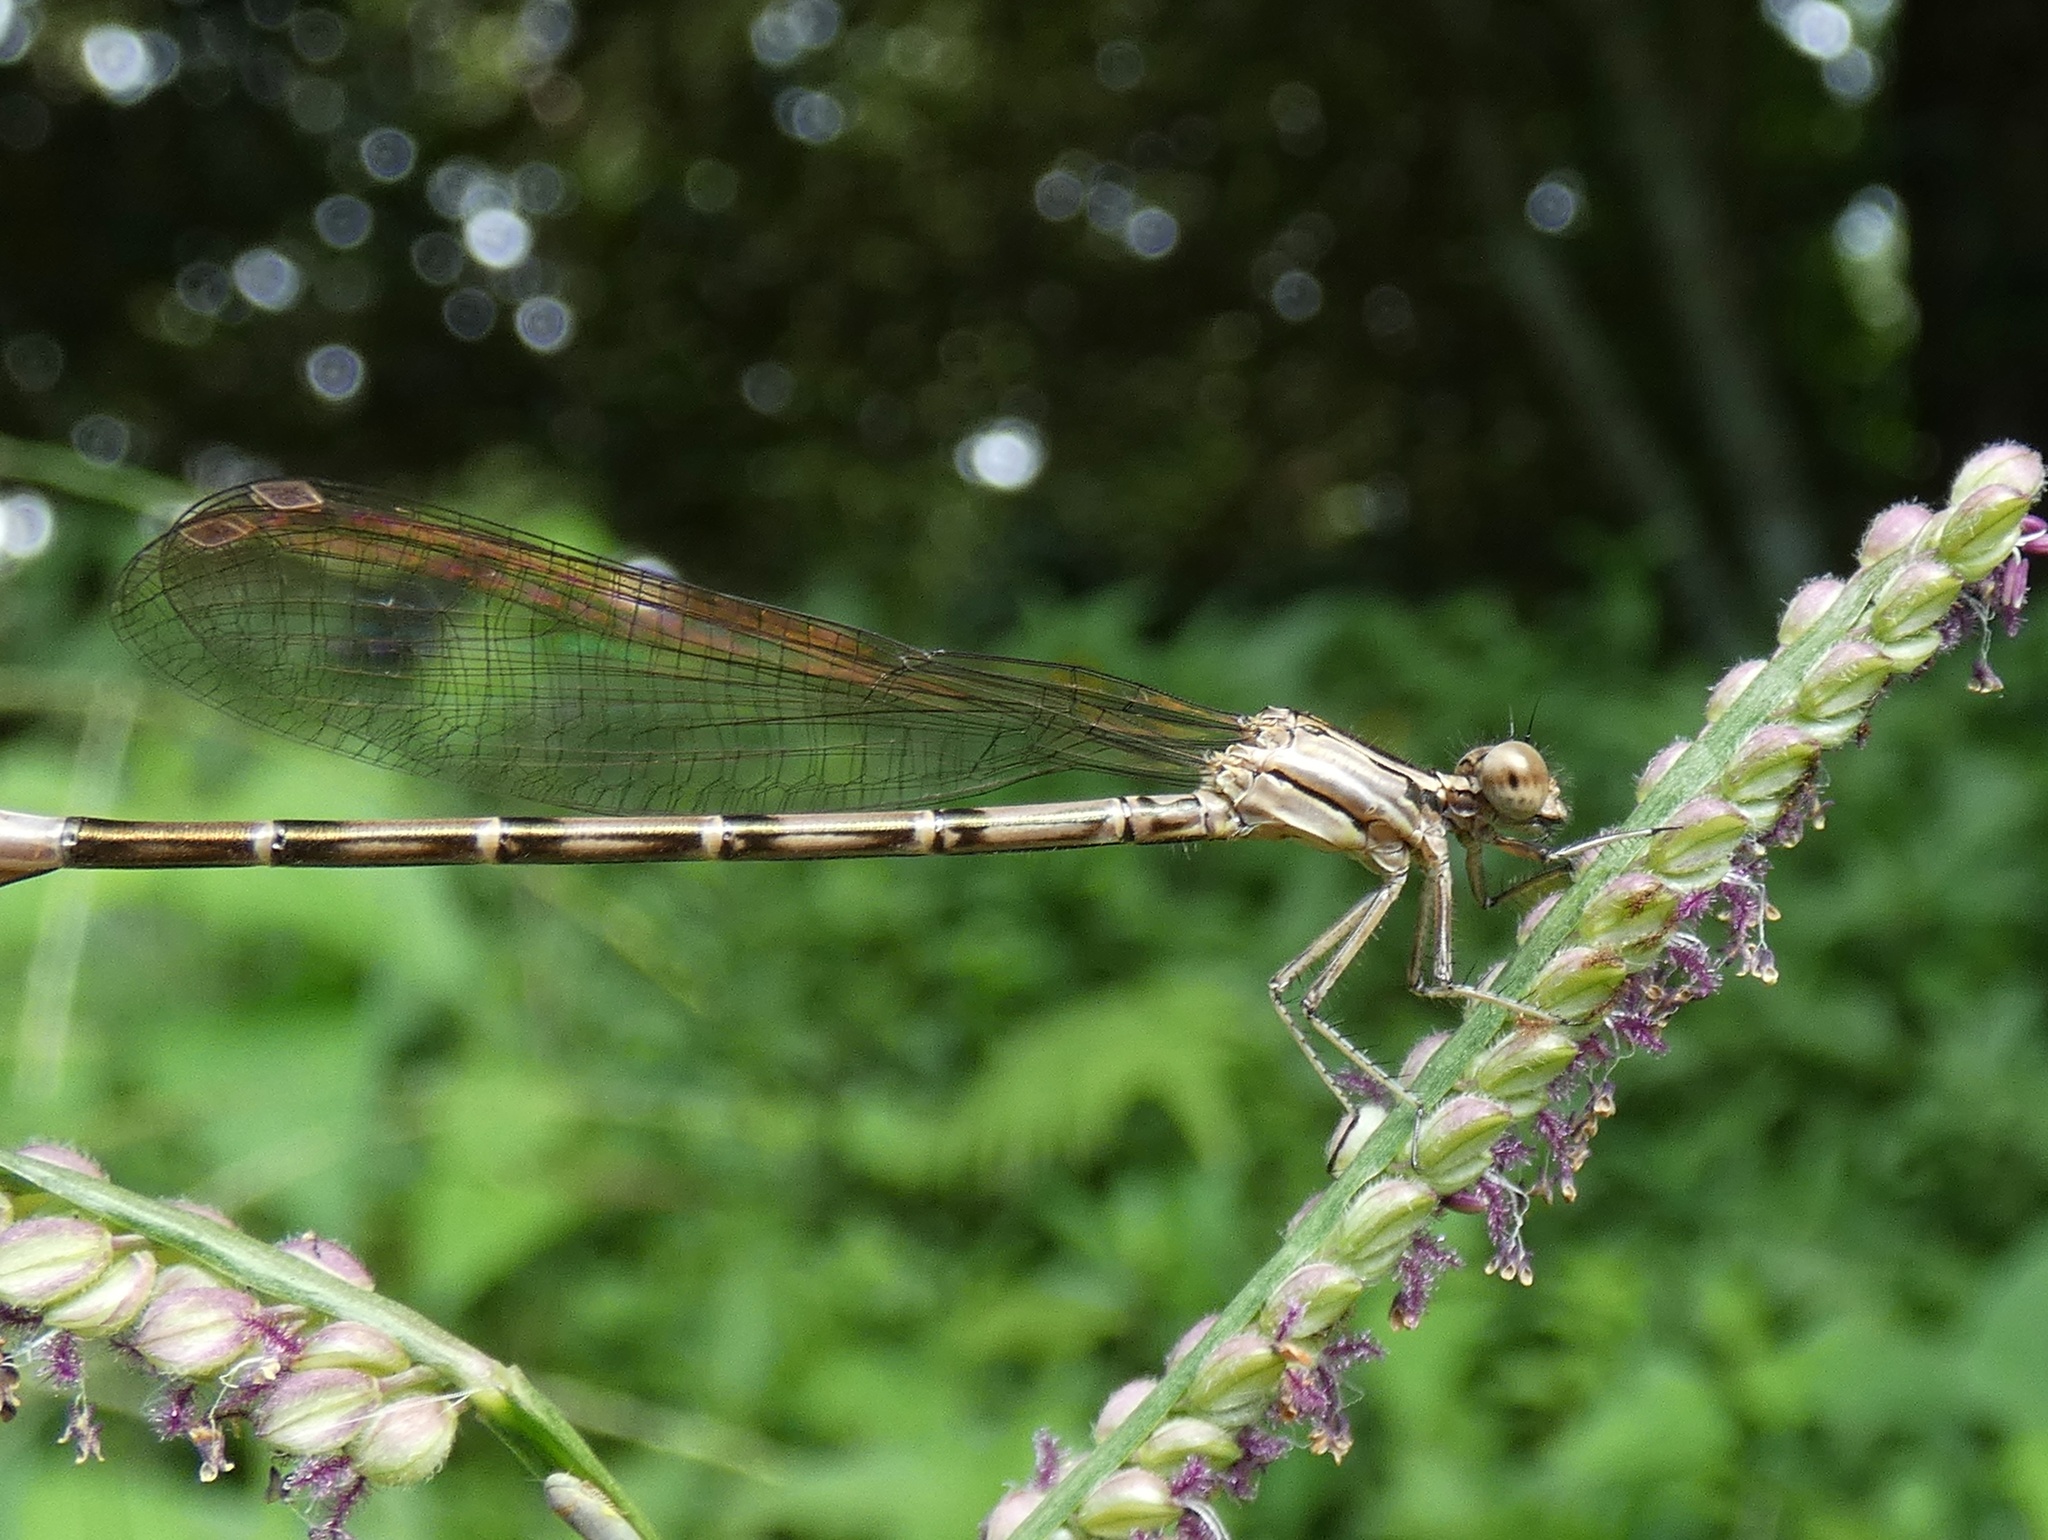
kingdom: Animalia
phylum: Arthropoda
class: Insecta
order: Odonata
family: Coenagrionidae
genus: Argia
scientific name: Argia elongata
